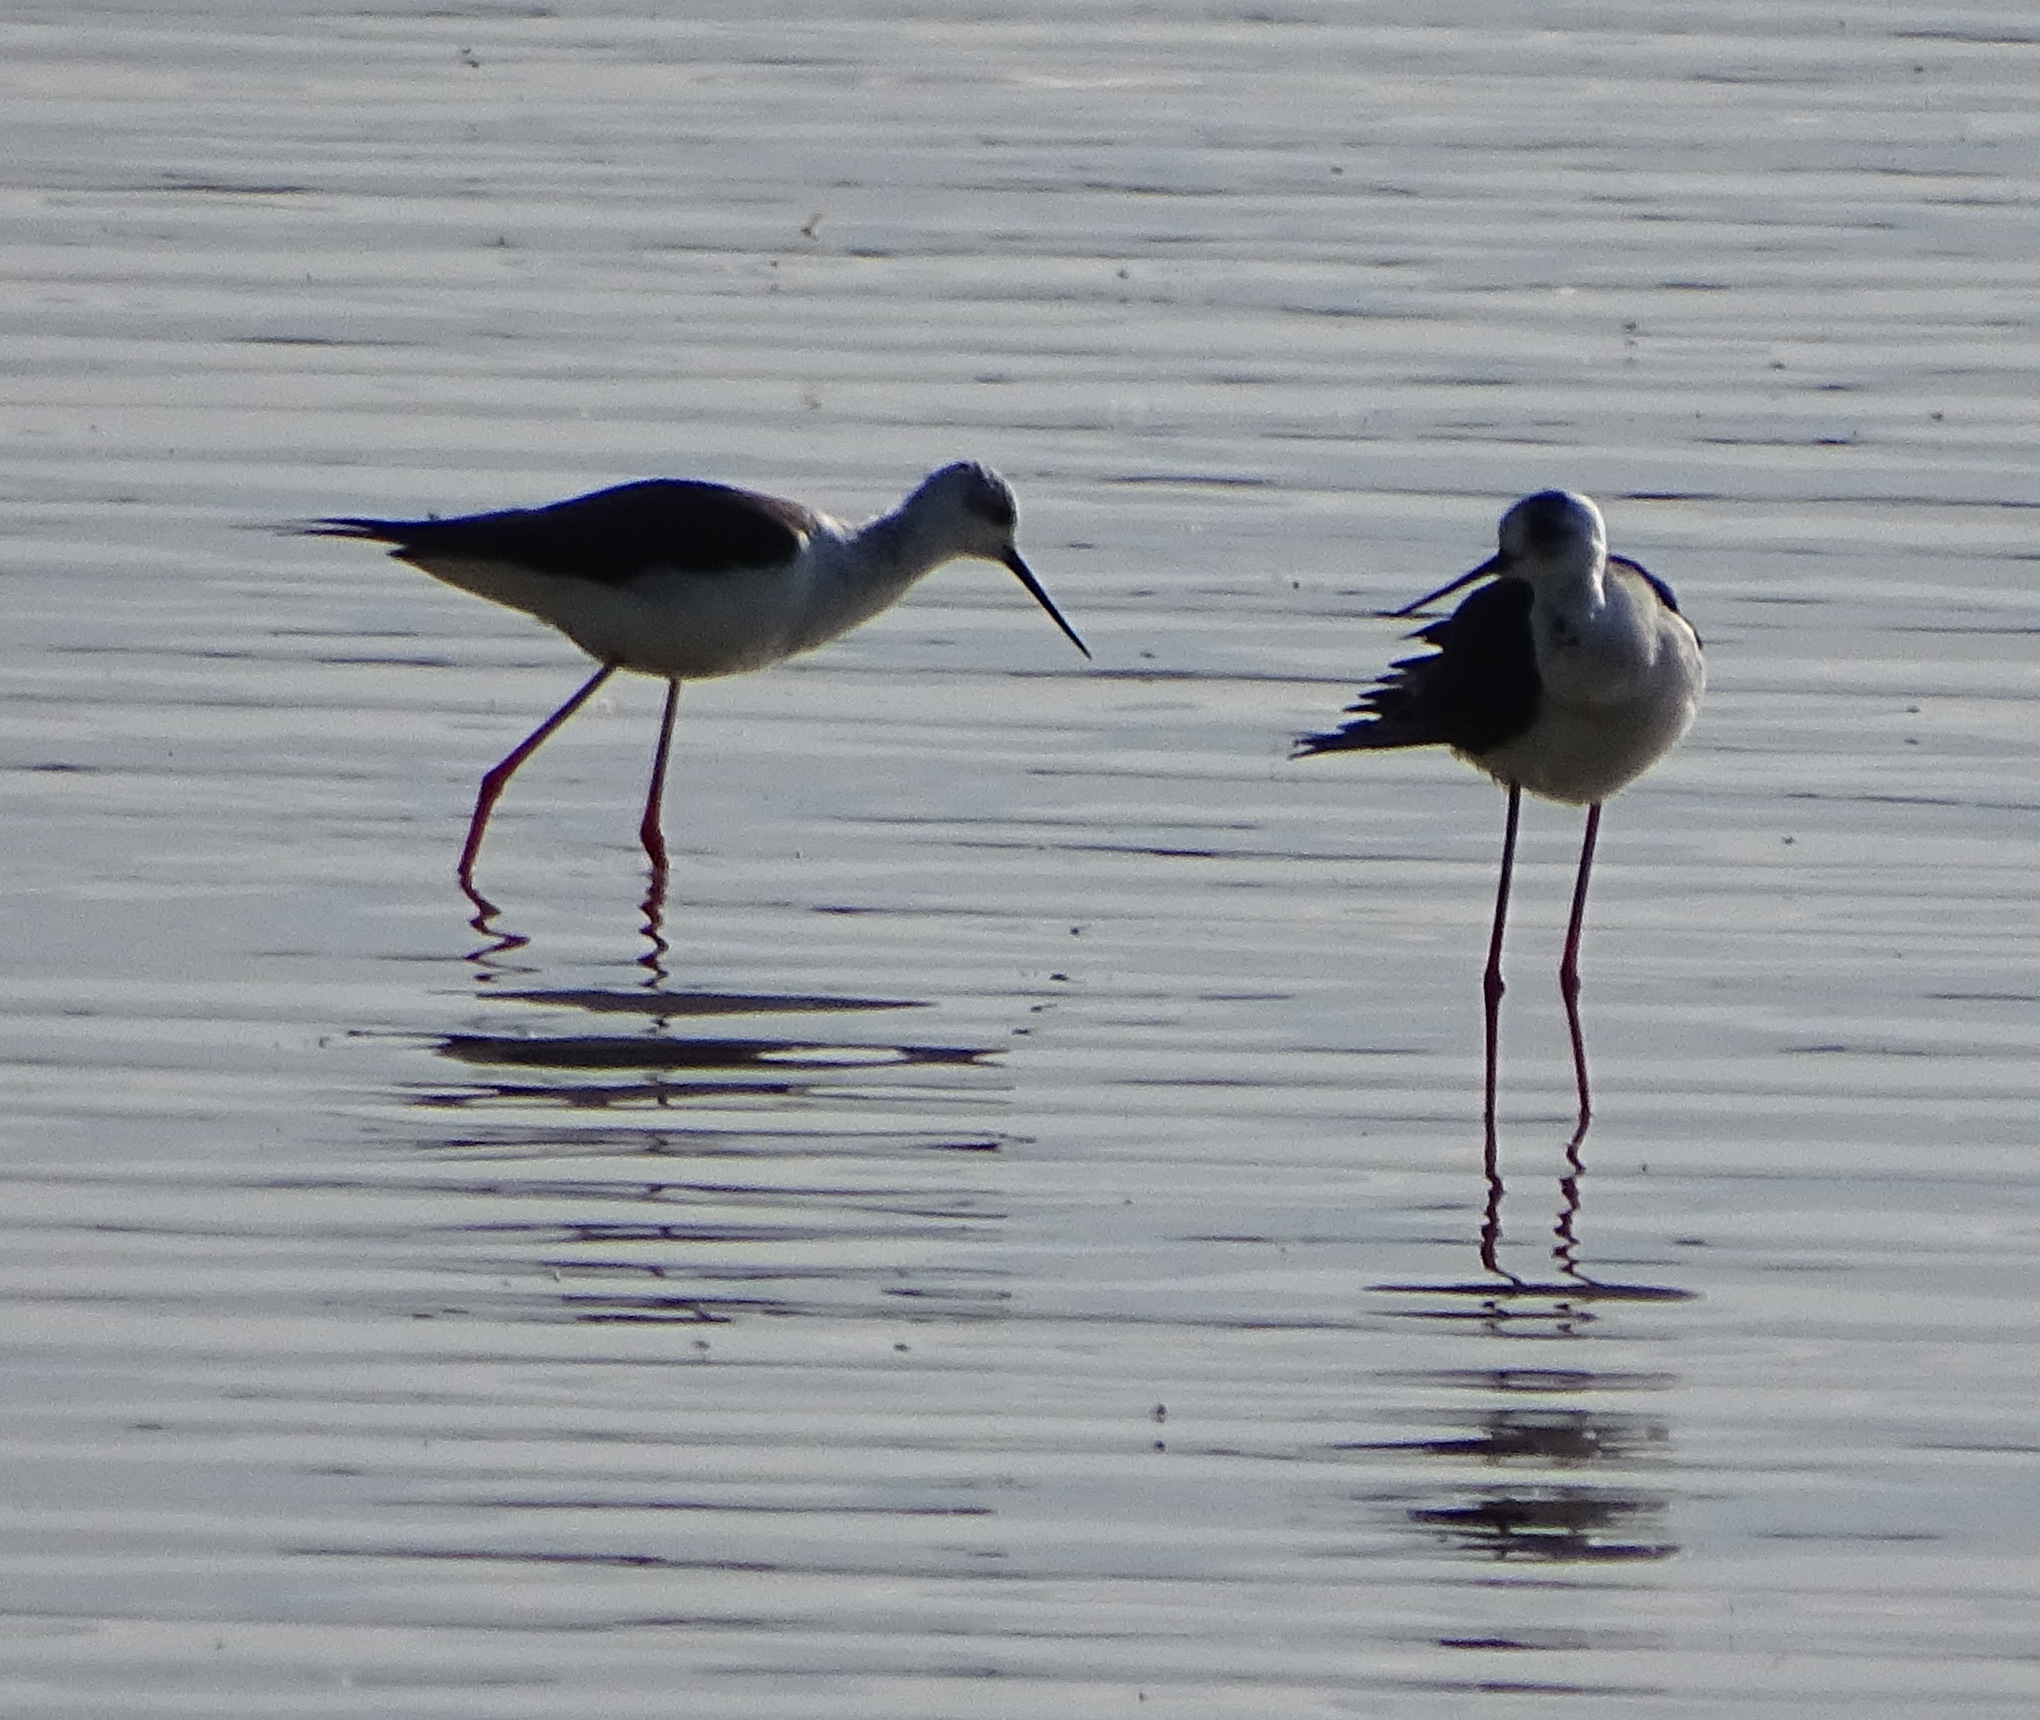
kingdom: Animalia
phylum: Chordata
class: Aves
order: Charadriiformes
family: Recurvirostridae
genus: Himantopus
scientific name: Himantopus himantopus
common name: Black-winged stilt
